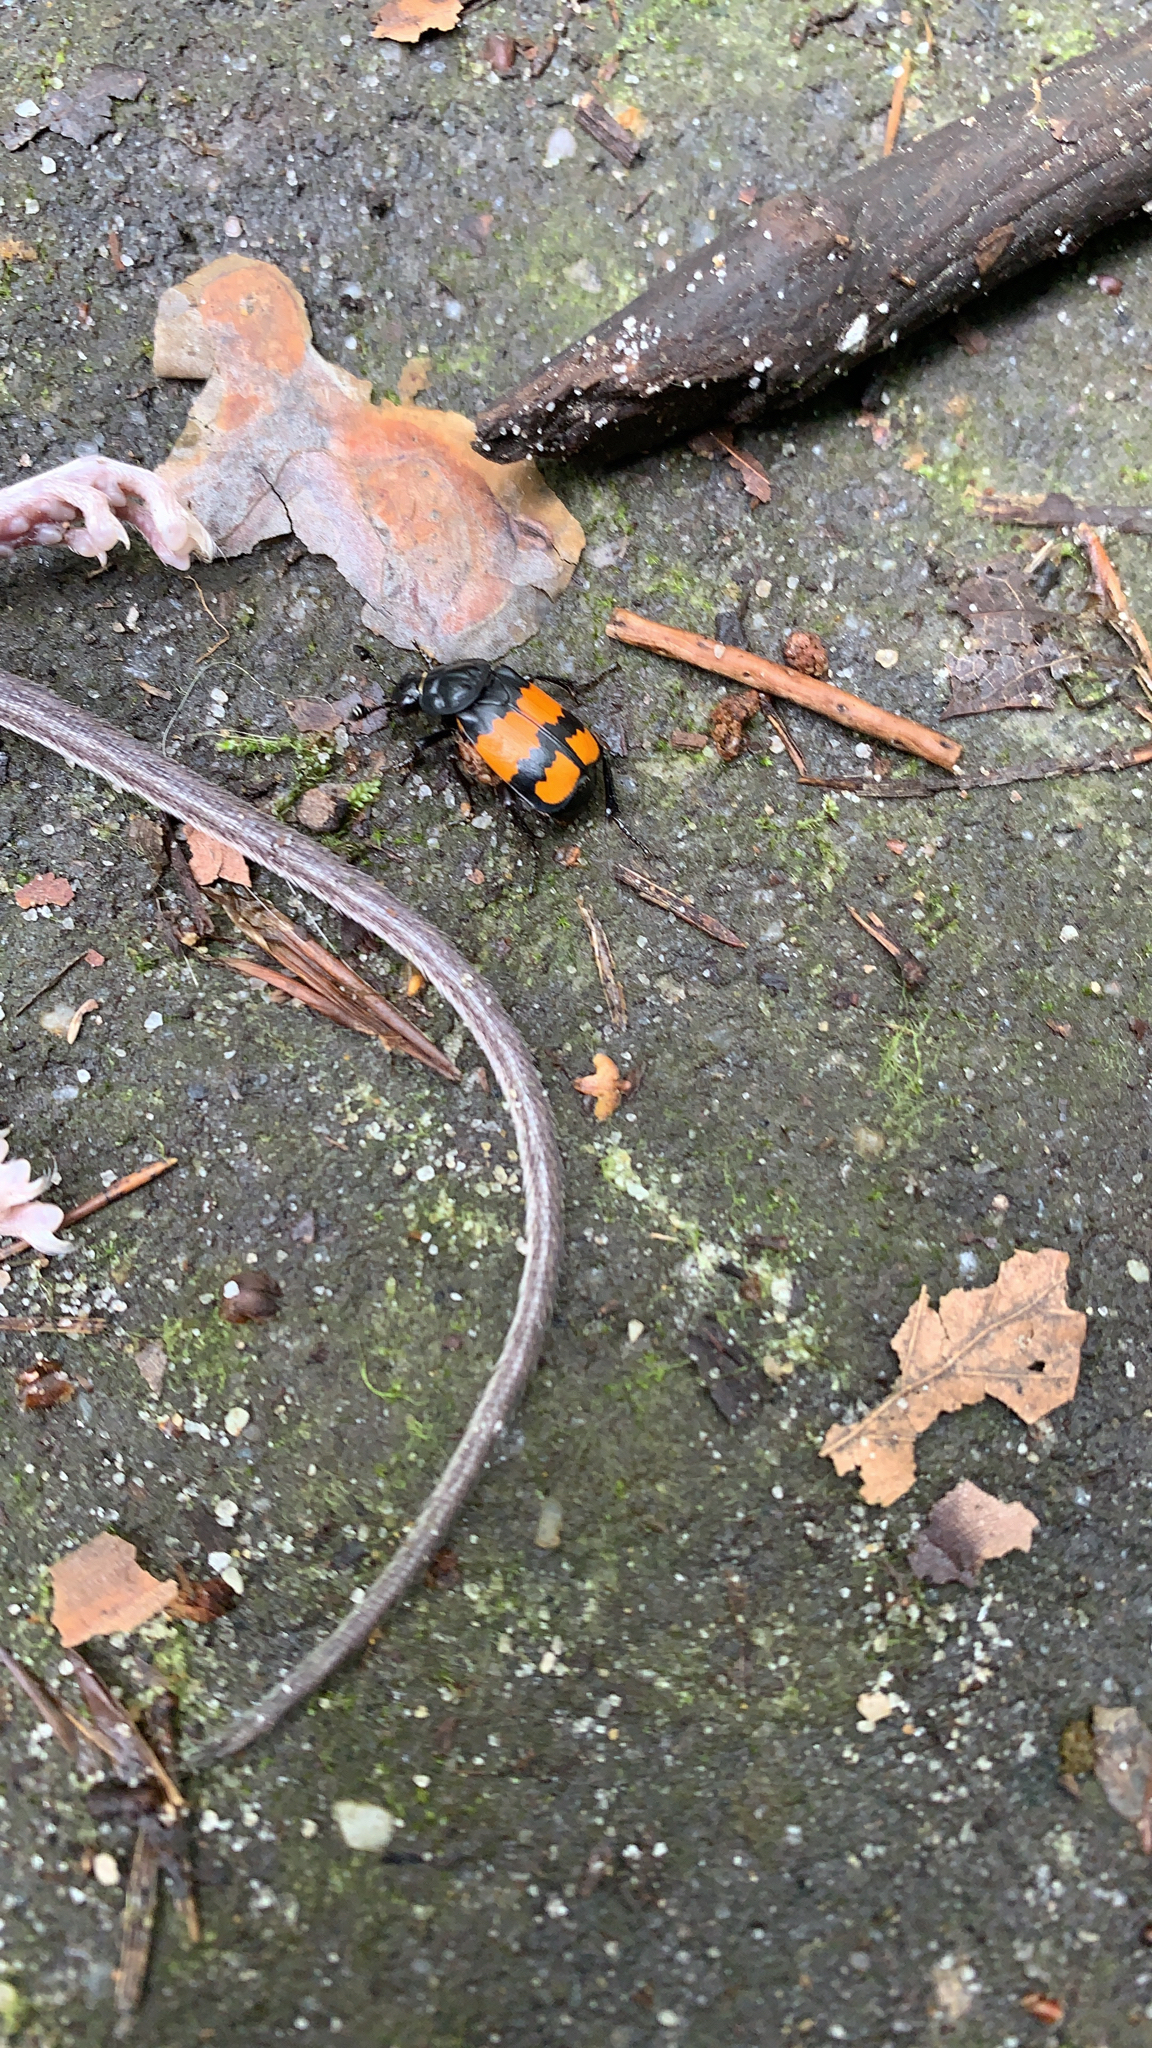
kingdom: Animalia
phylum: Arthropoda
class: Insecta
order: Coleoptera
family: Staphylinidae
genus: Nicrophorus
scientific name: Nicrophorus vespilloides
